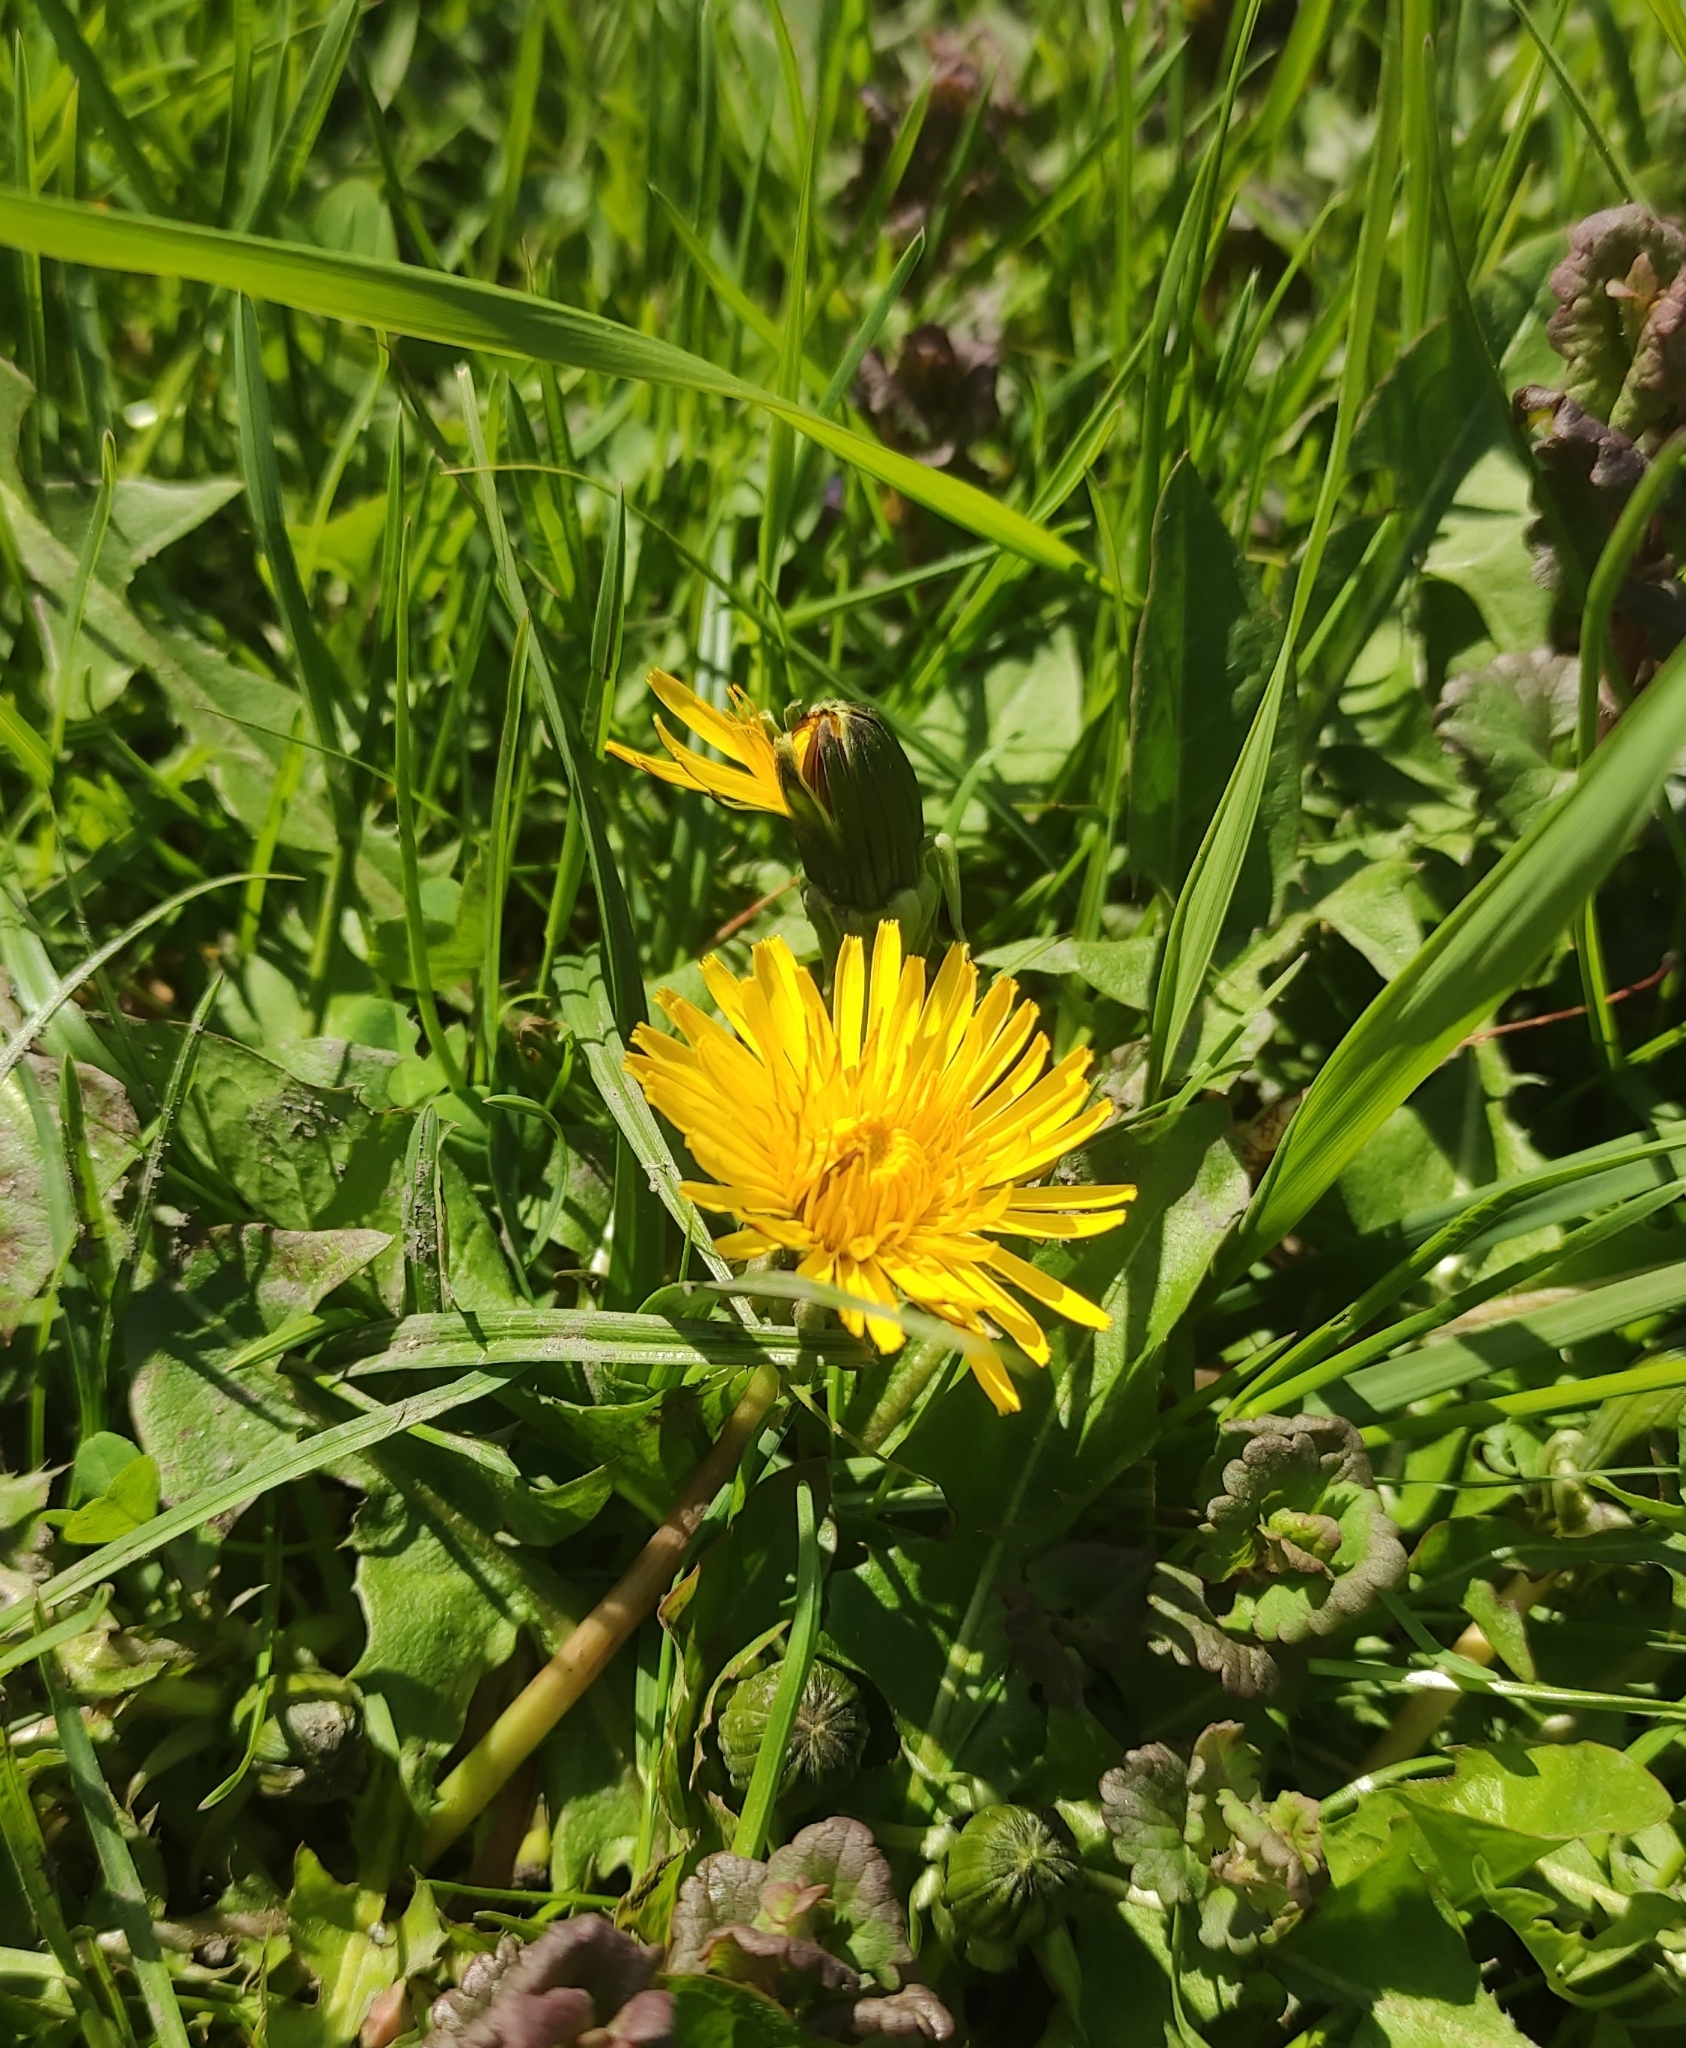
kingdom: Plantae
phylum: Tracheophyta
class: Magnoliopsida
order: Asterales
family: Asteraceae
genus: Taraxacum
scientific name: Taraxacum officinale
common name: Common dandelion
